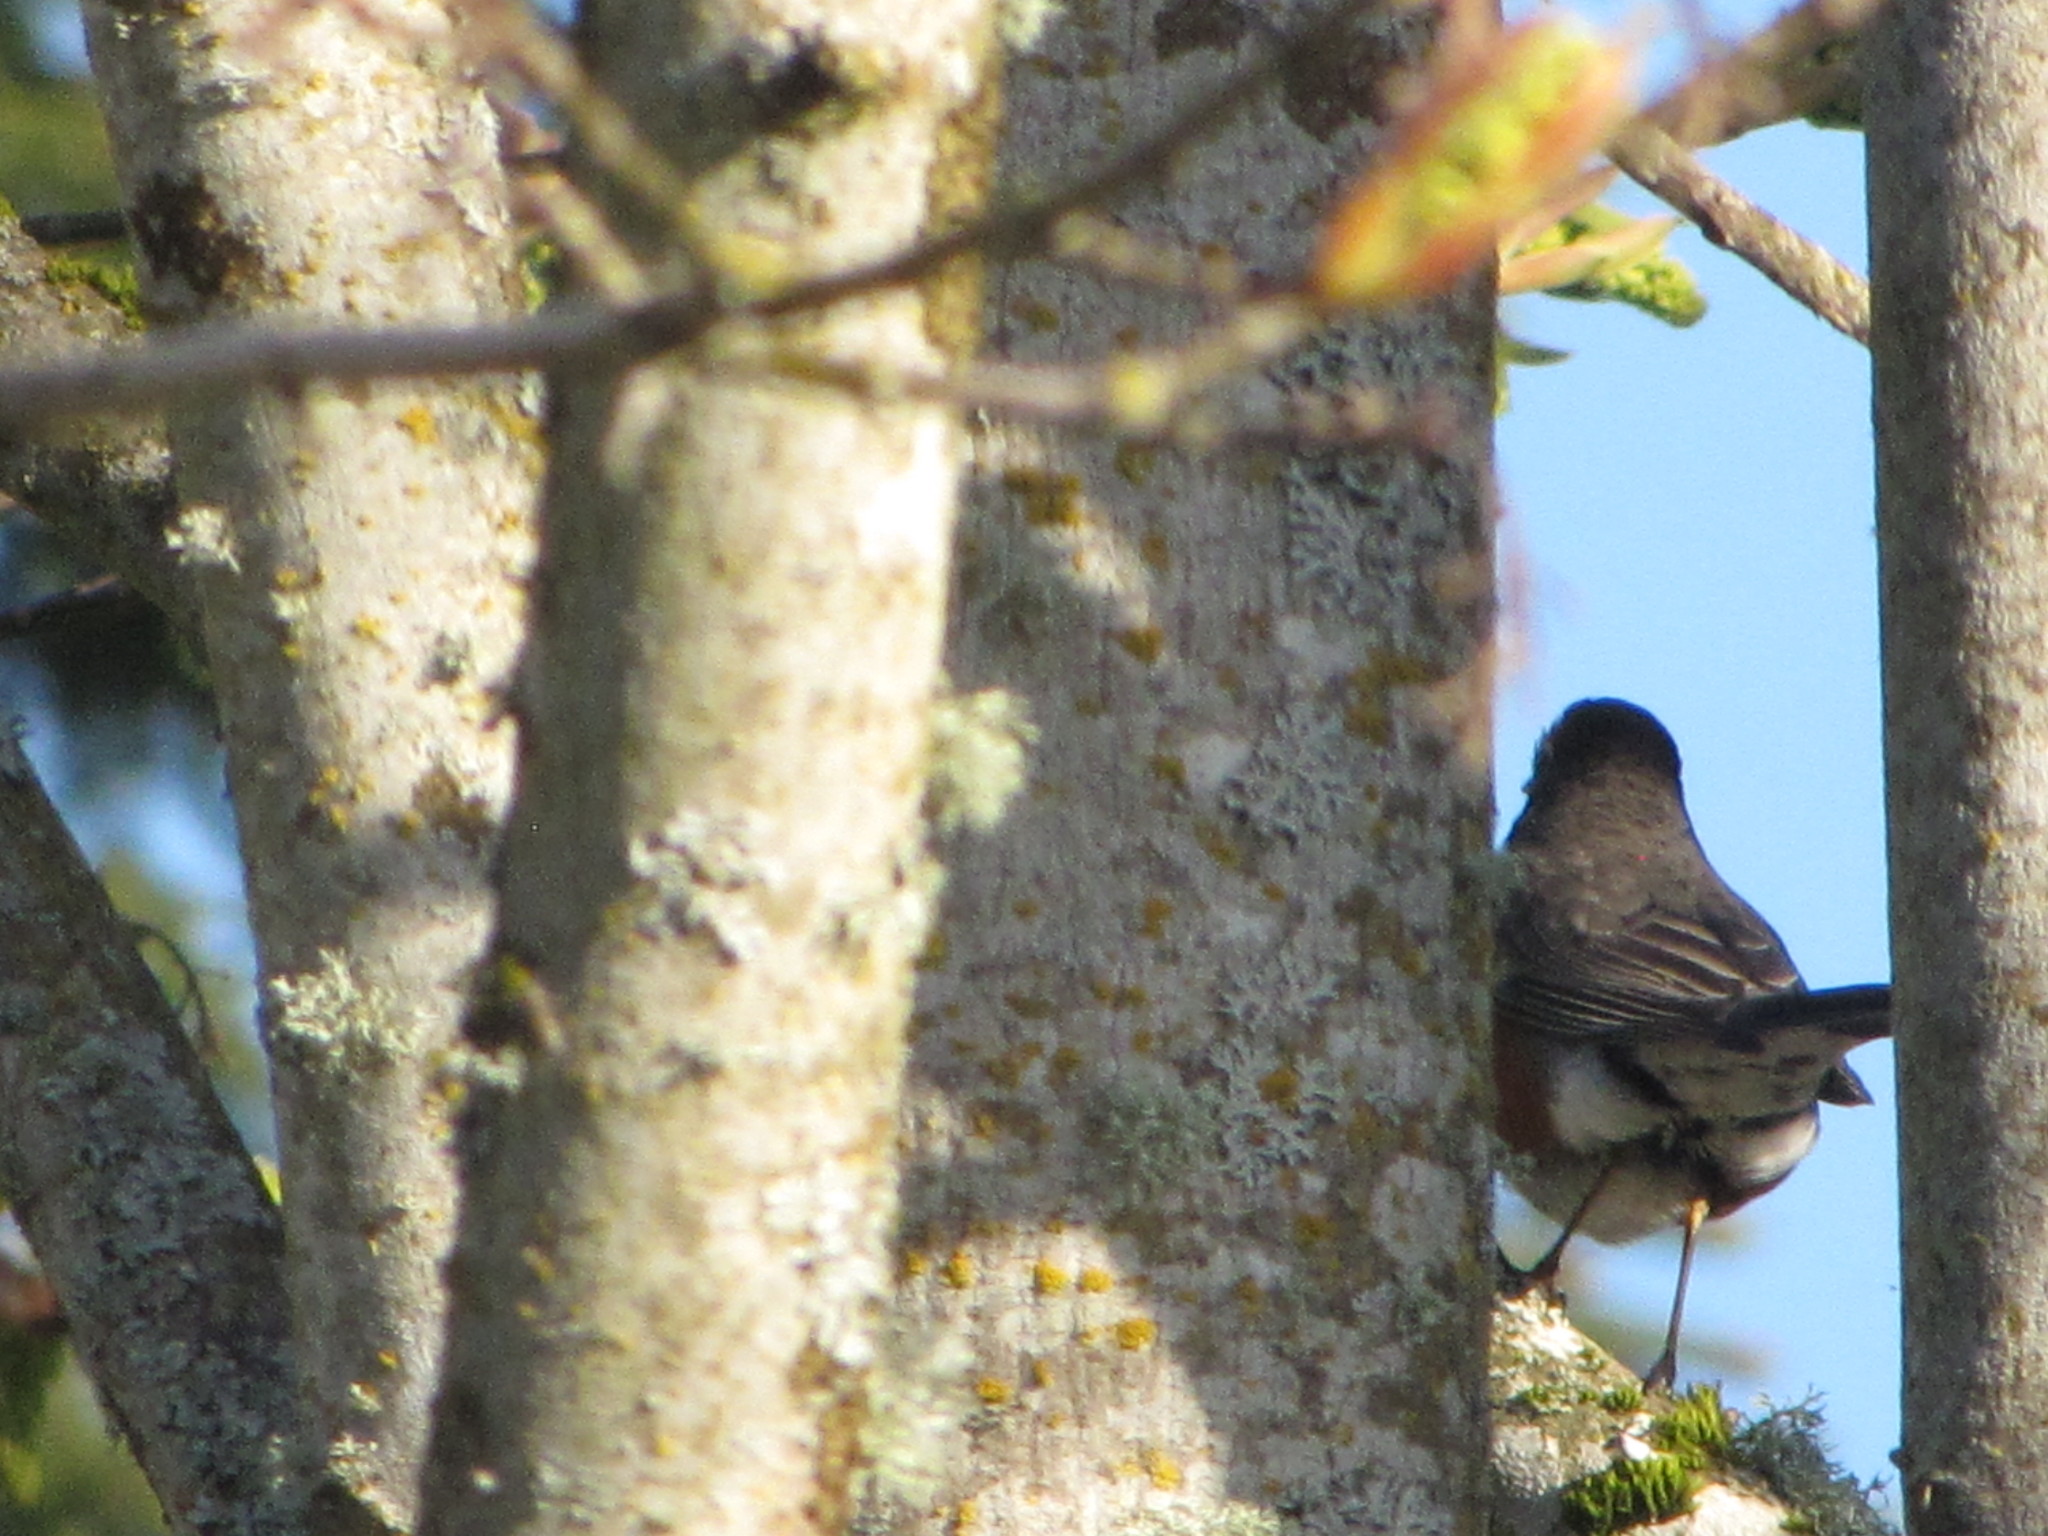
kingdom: Animalia
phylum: Chordata
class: Aves
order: Passeriformes
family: Turdidae
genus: Turdus
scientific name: Turdus migratorius
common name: American robin
